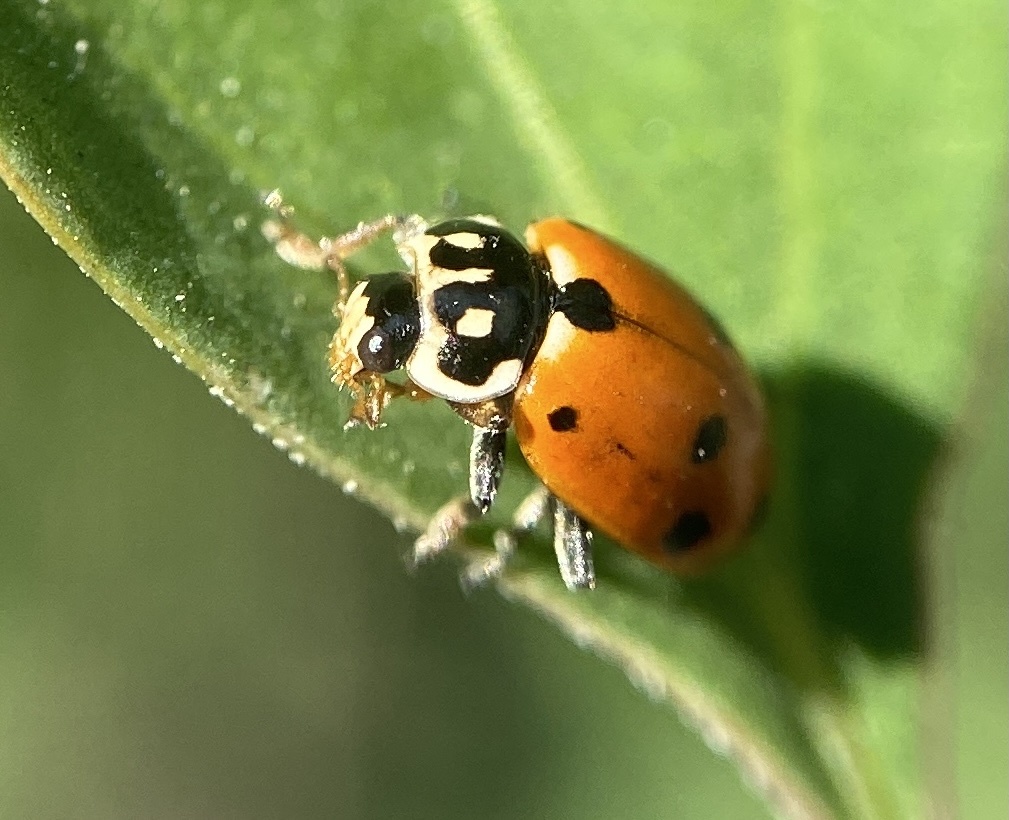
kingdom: Animalia
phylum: Arthropoda
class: Insecta
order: Coleoptera
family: Coccinellidae
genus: Hippodamia
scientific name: Hippodamia variegata
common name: Ladybird beetle
